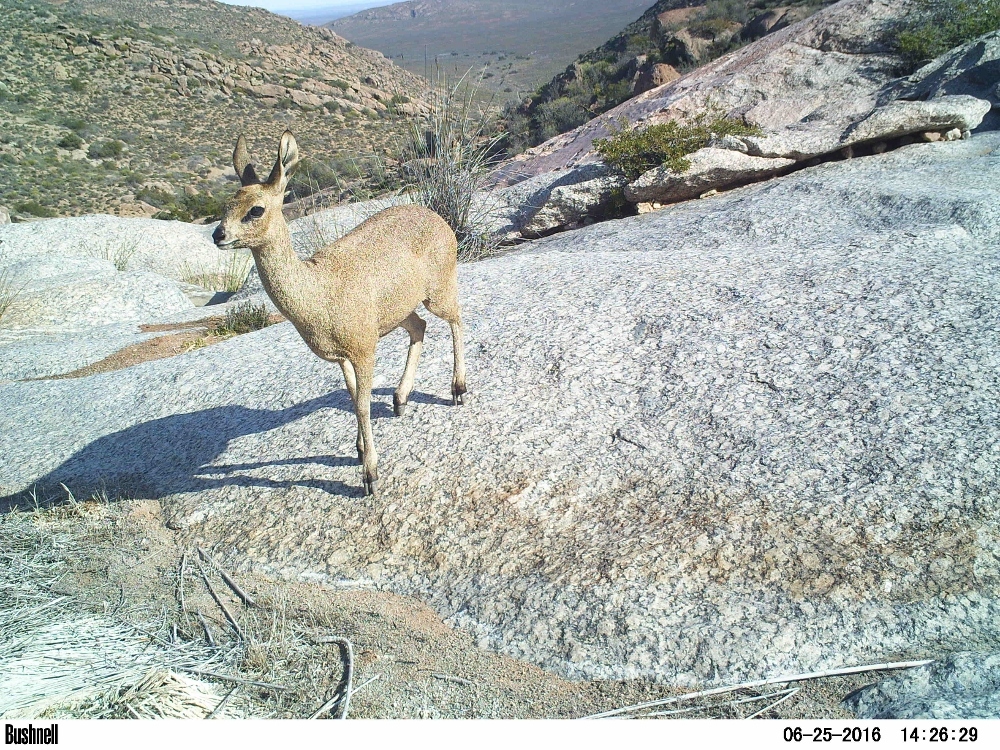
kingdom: Animalia
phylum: Chordata
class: Mammalia
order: Artiodactyla
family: Bovidae
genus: Oreotragus
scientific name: Oreotragus oreotragus
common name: Klipspringer
